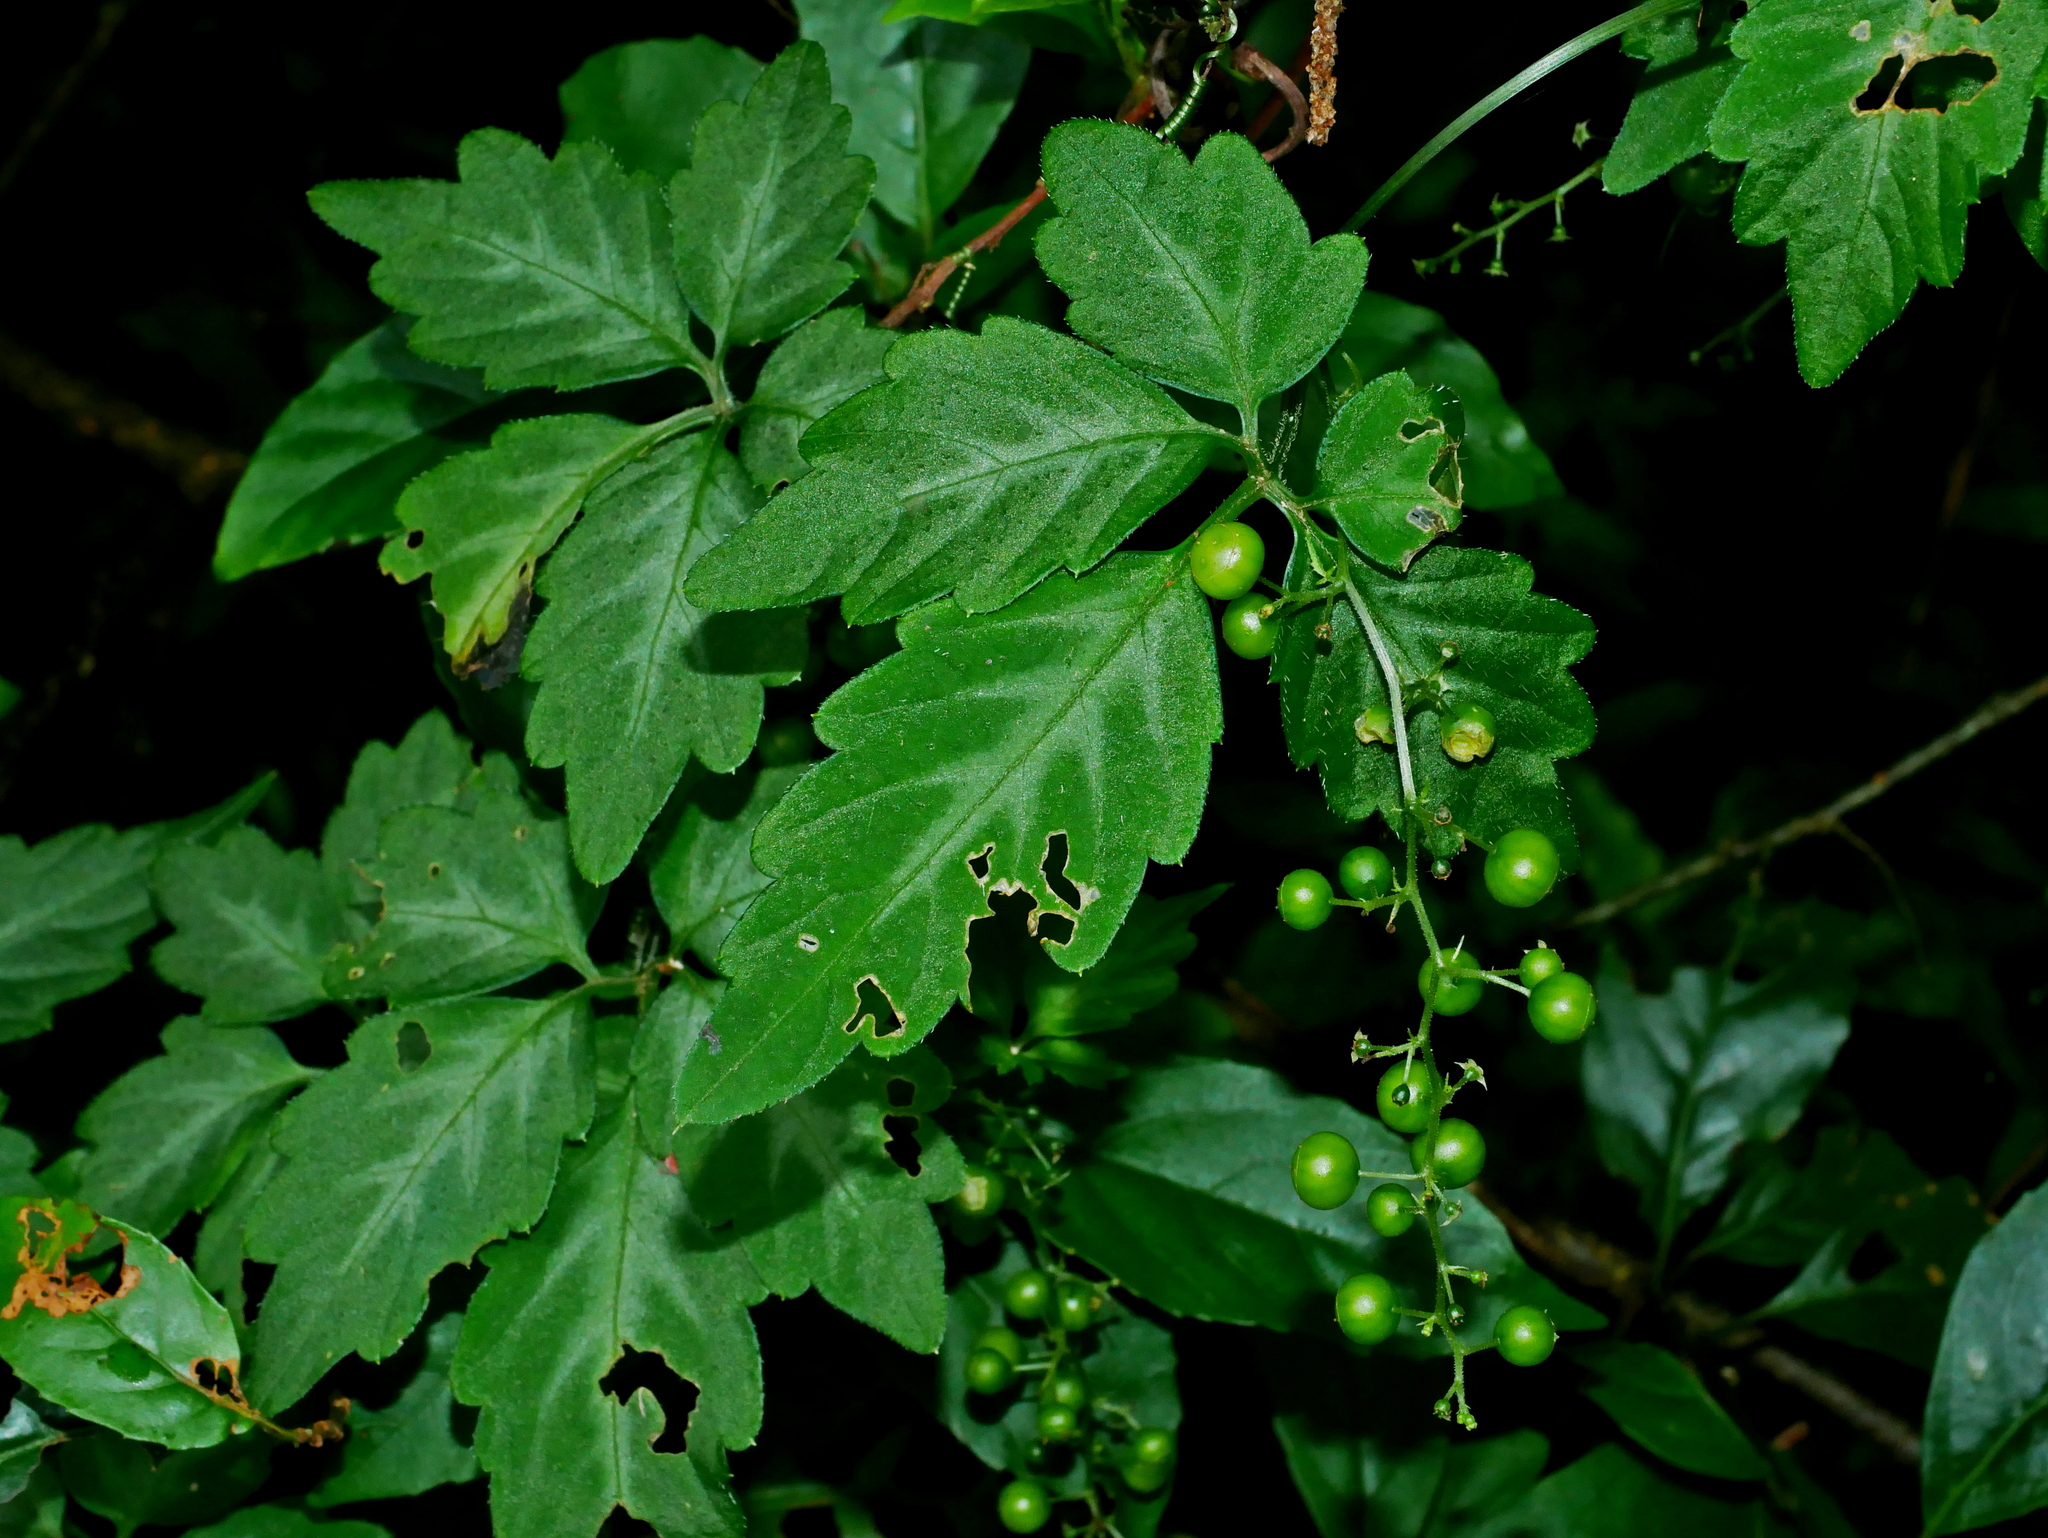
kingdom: Plantae
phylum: Tracheophyta
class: Magnoliopsida
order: Cucurbitales
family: Cucurbitaceae
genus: Gynostemma
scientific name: Gynostemma pentaphyllum
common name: Gynostemma
